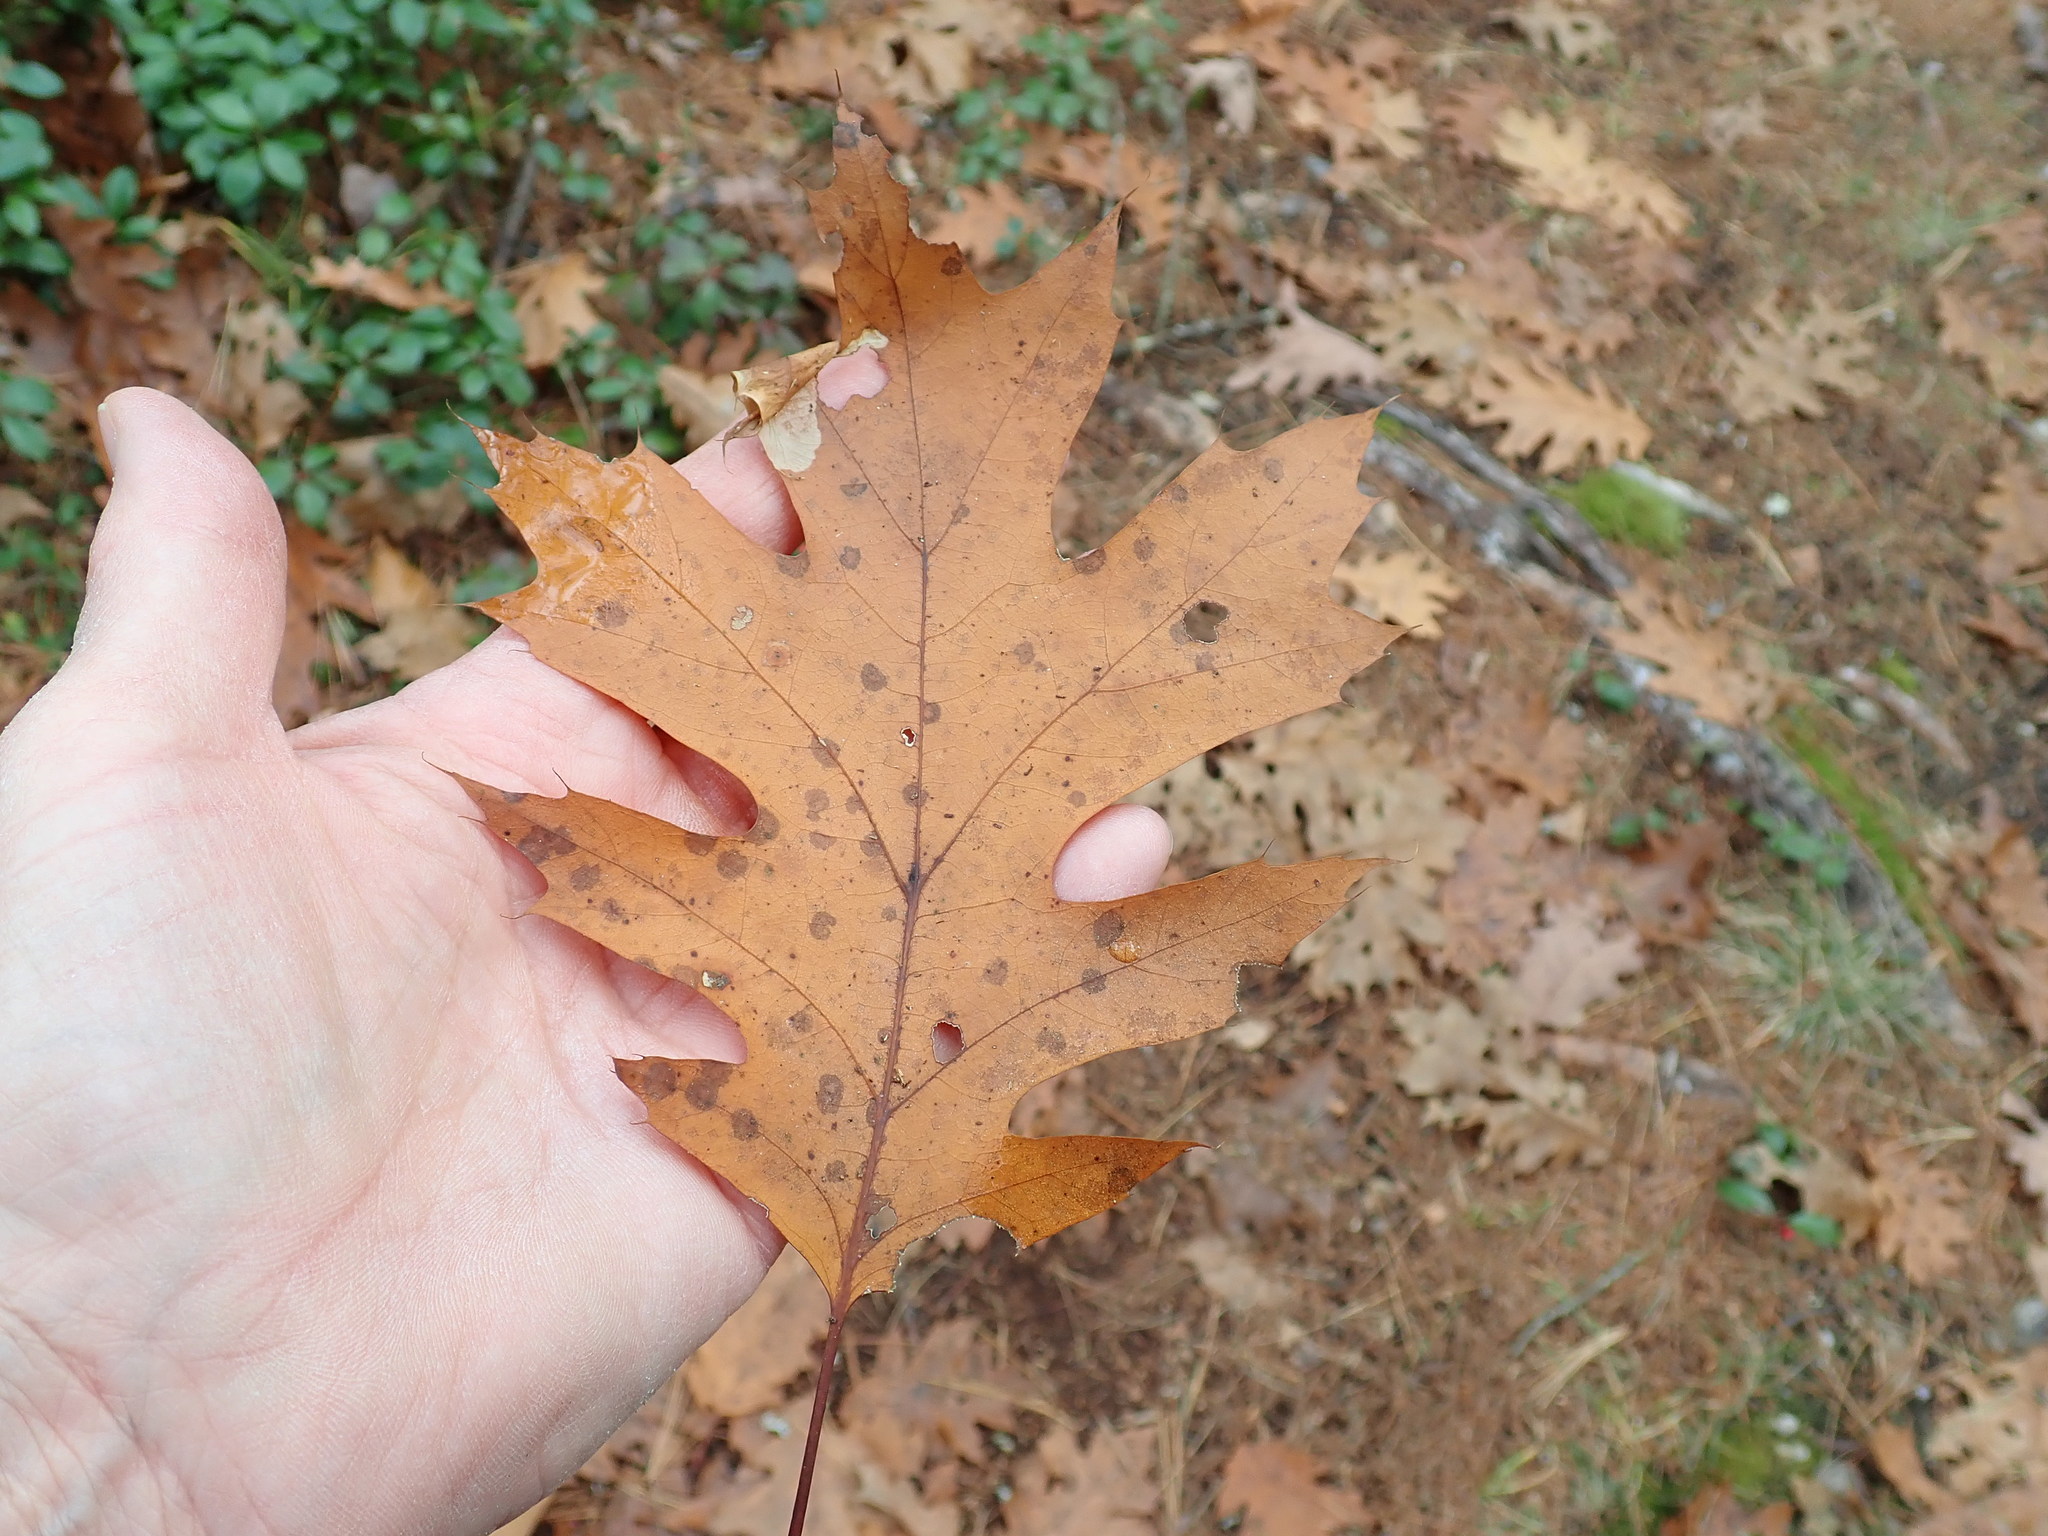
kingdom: Plantae
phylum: Tracheophyta
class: Magnoliopsida
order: Fagales
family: Fagaceae
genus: Quercus
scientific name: Quercus rubra
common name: Red oak
